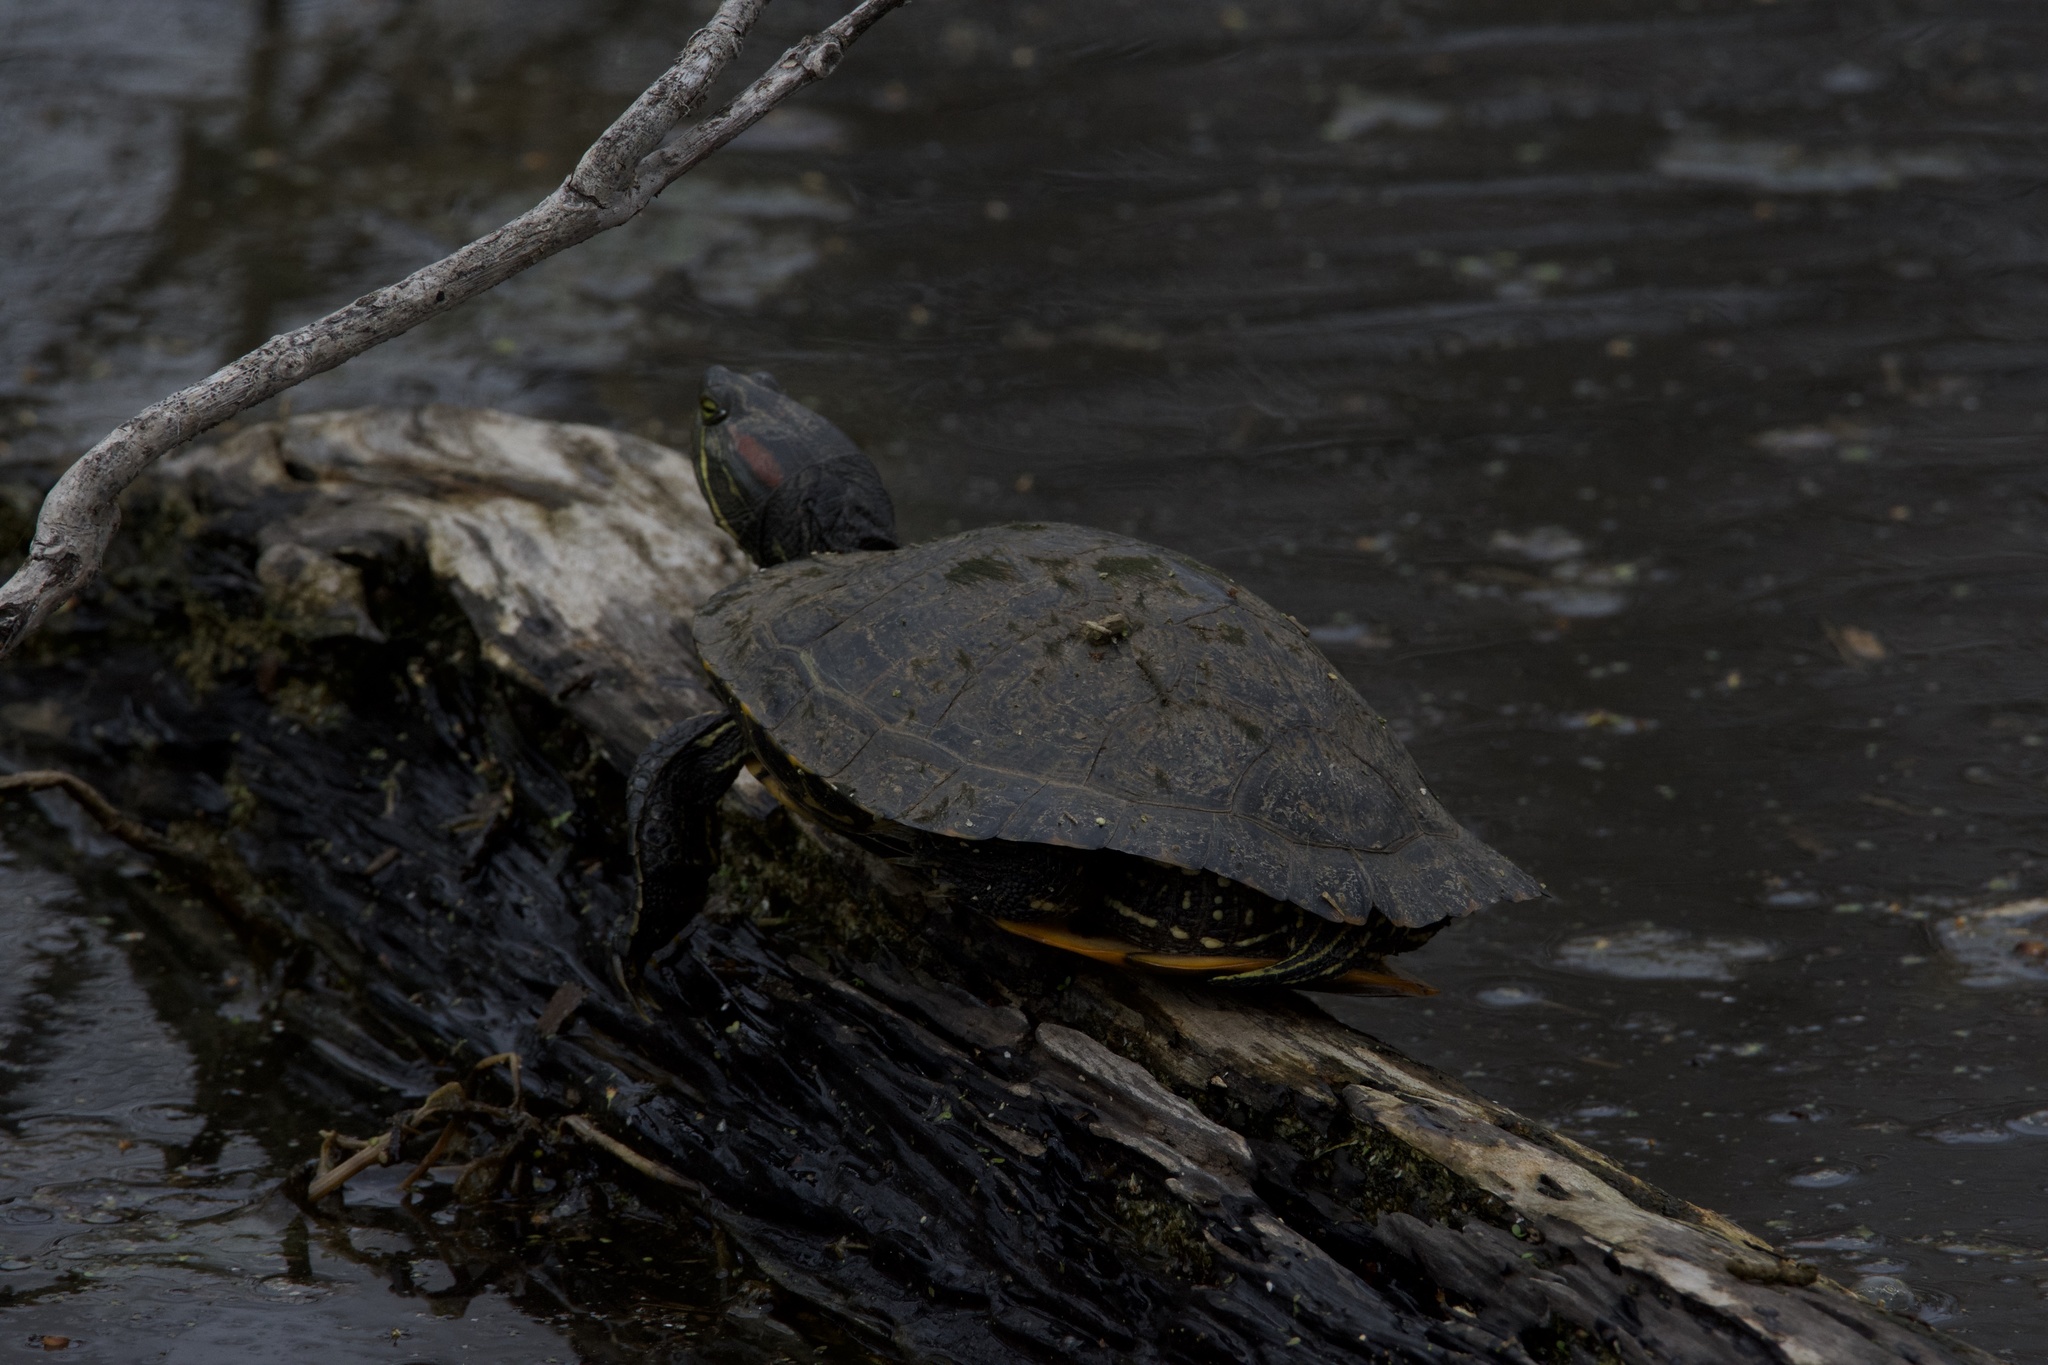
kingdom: Animalia
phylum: Chordata
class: Testudines
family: Emydidae
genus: Trachemys
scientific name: Trachemys scripta
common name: Slider
